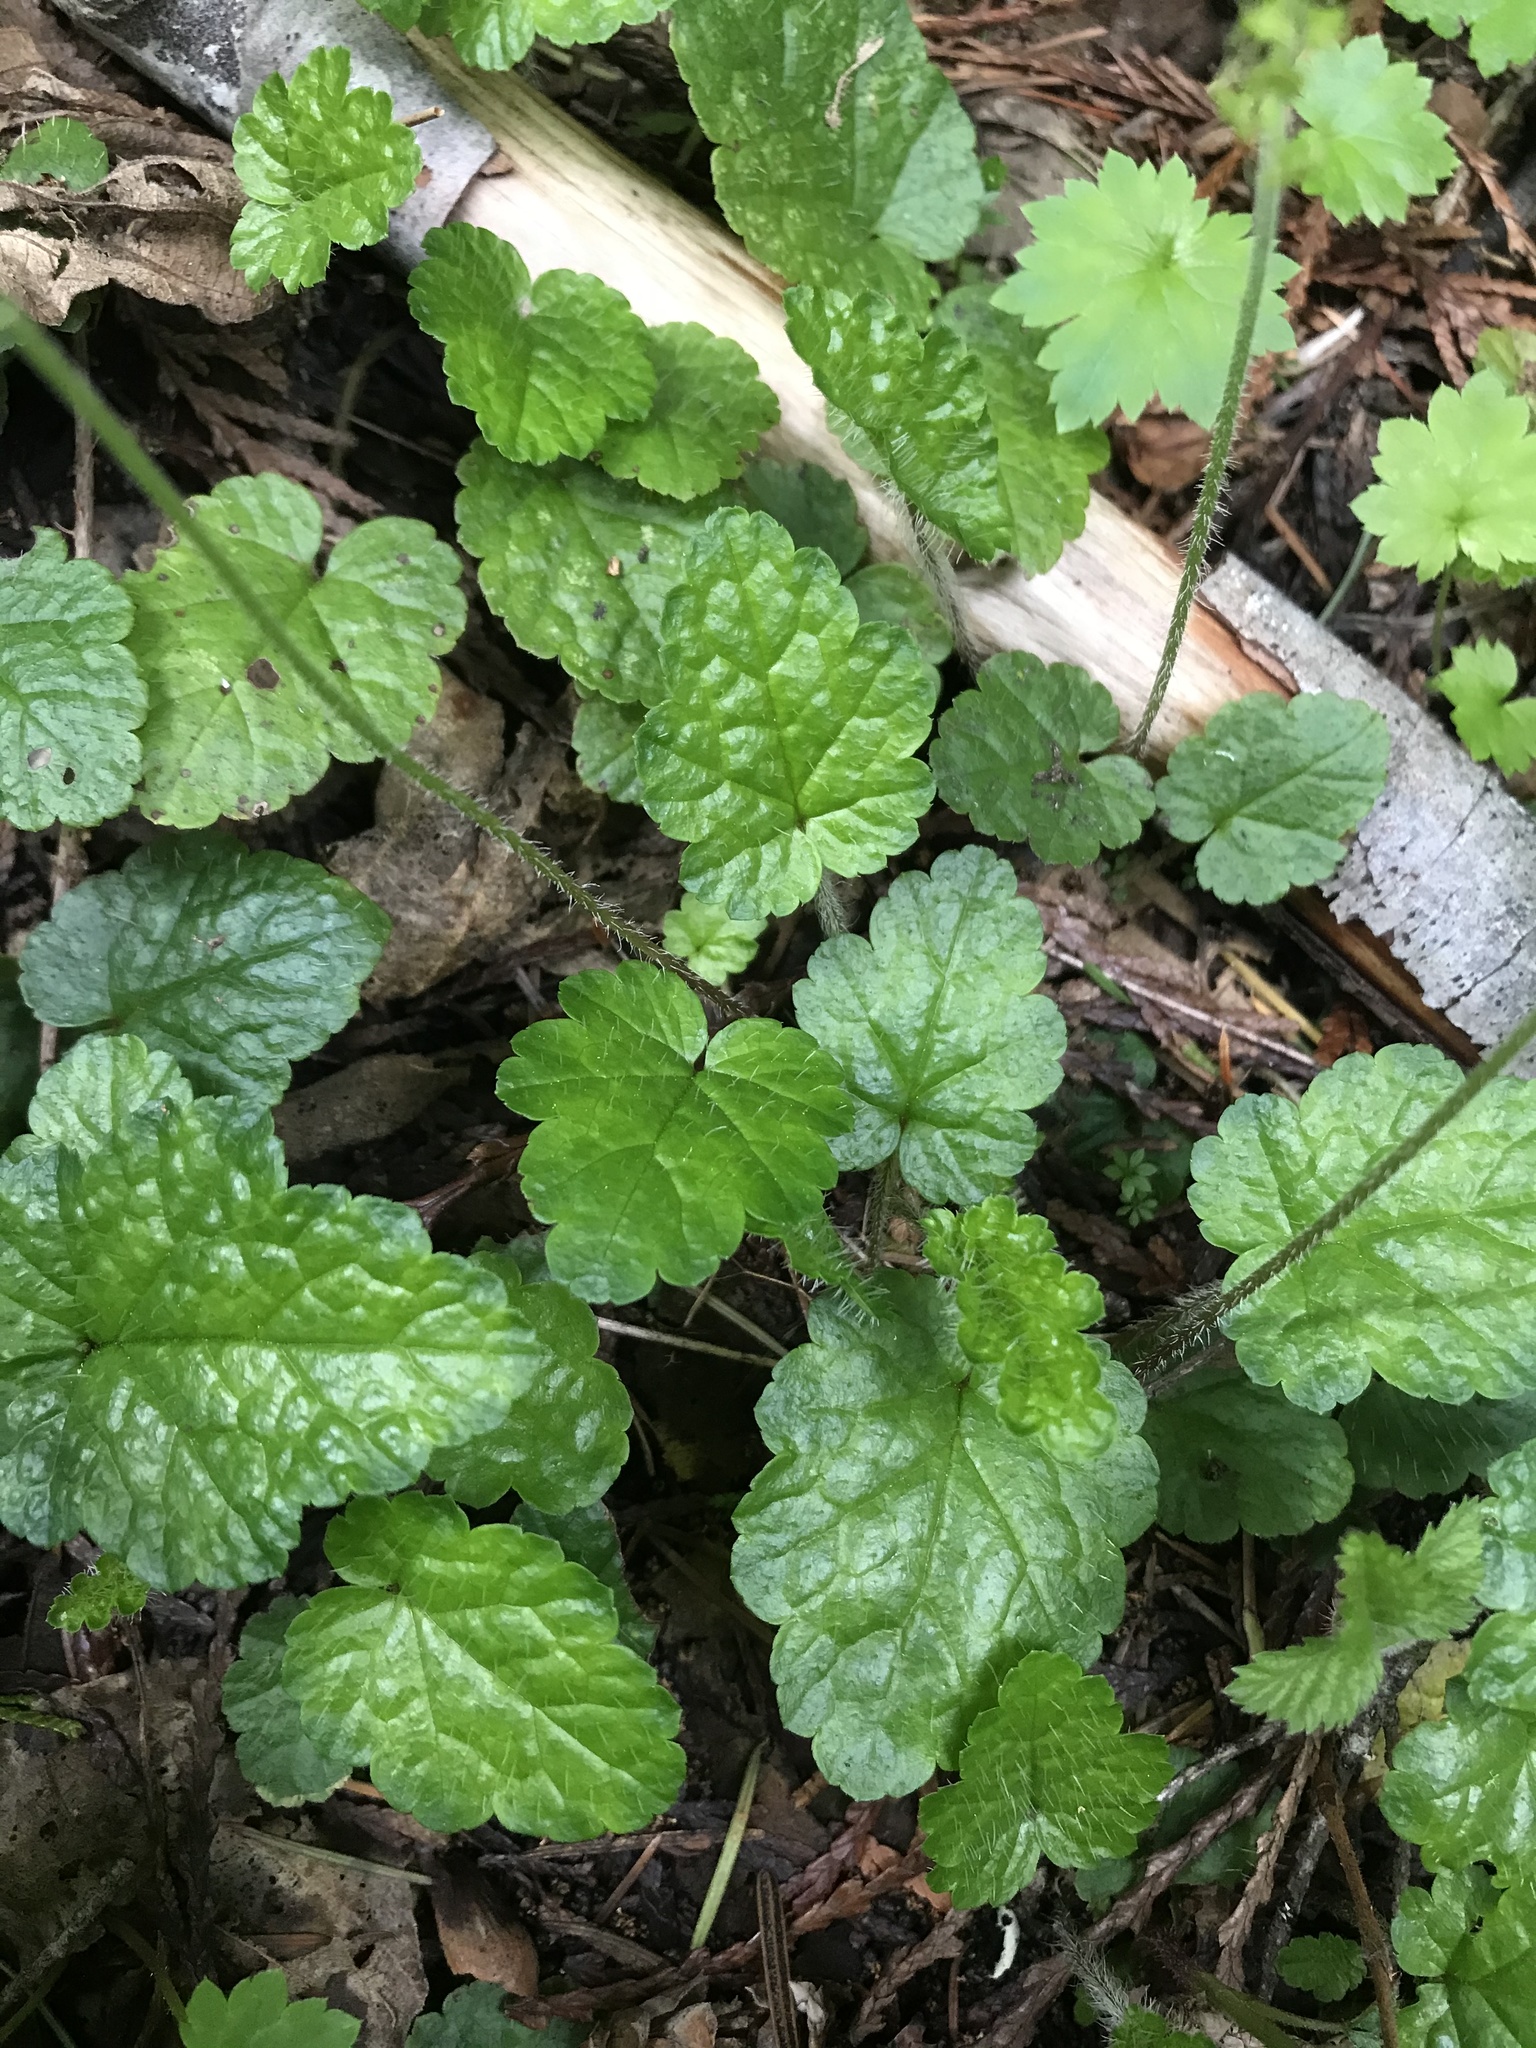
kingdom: Plantae
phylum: Tracheophyta
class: Magnoliopsida
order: Saxifragales
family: Saxifragaceae
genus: Brewerimitella
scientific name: Brewerimitella ovalis
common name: Coastal bishop's-cap
